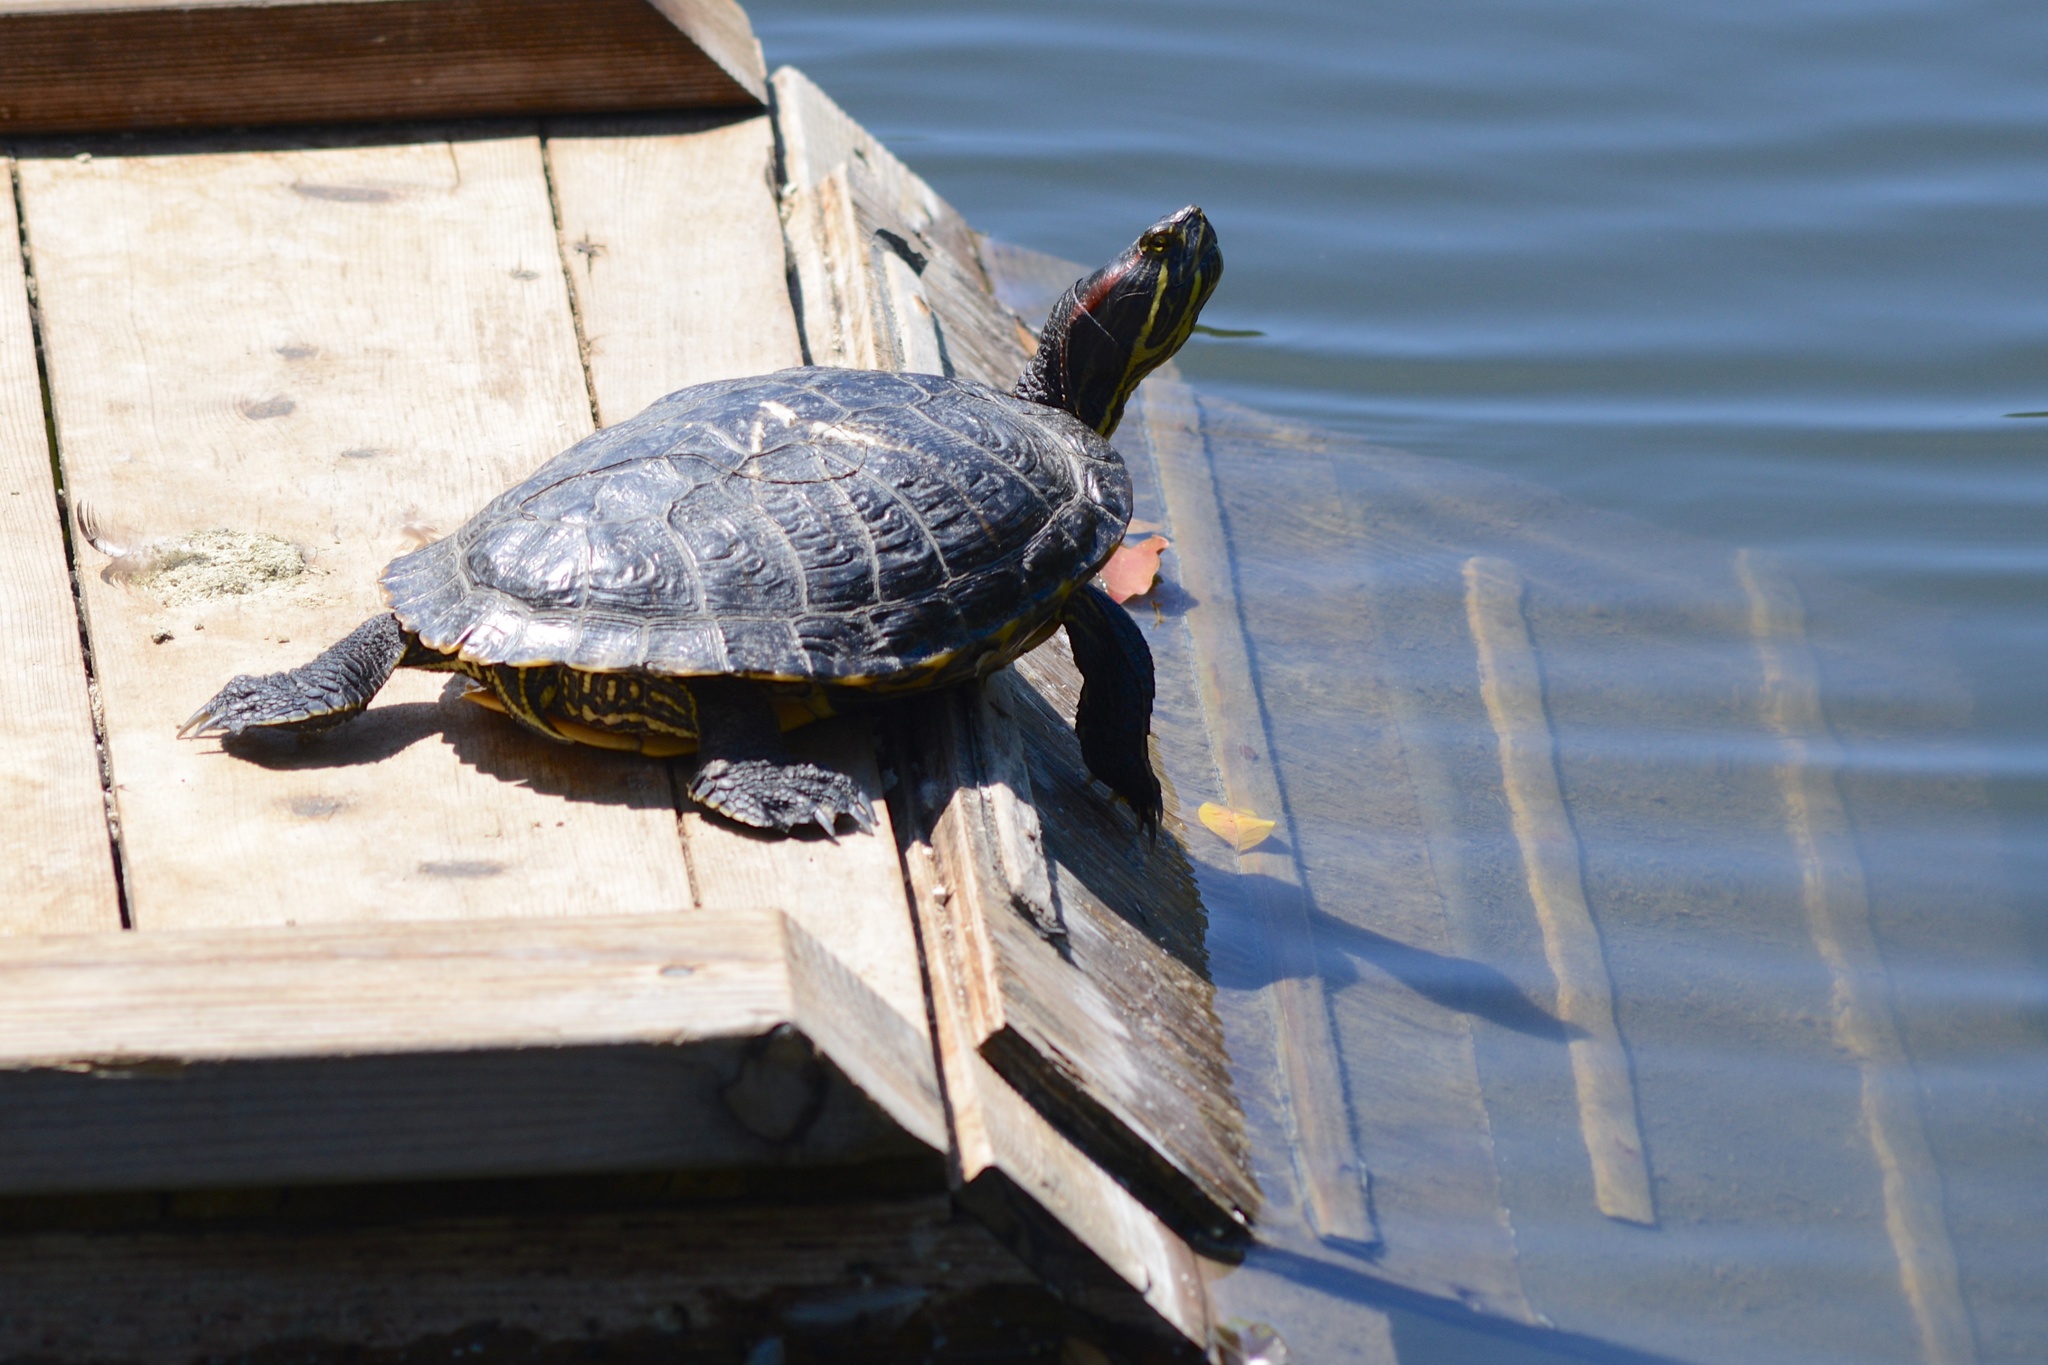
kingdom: Animalia
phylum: Chordata
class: Testudines
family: Emydidae
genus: Trachemys
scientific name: Trachemys scripta
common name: Slider
